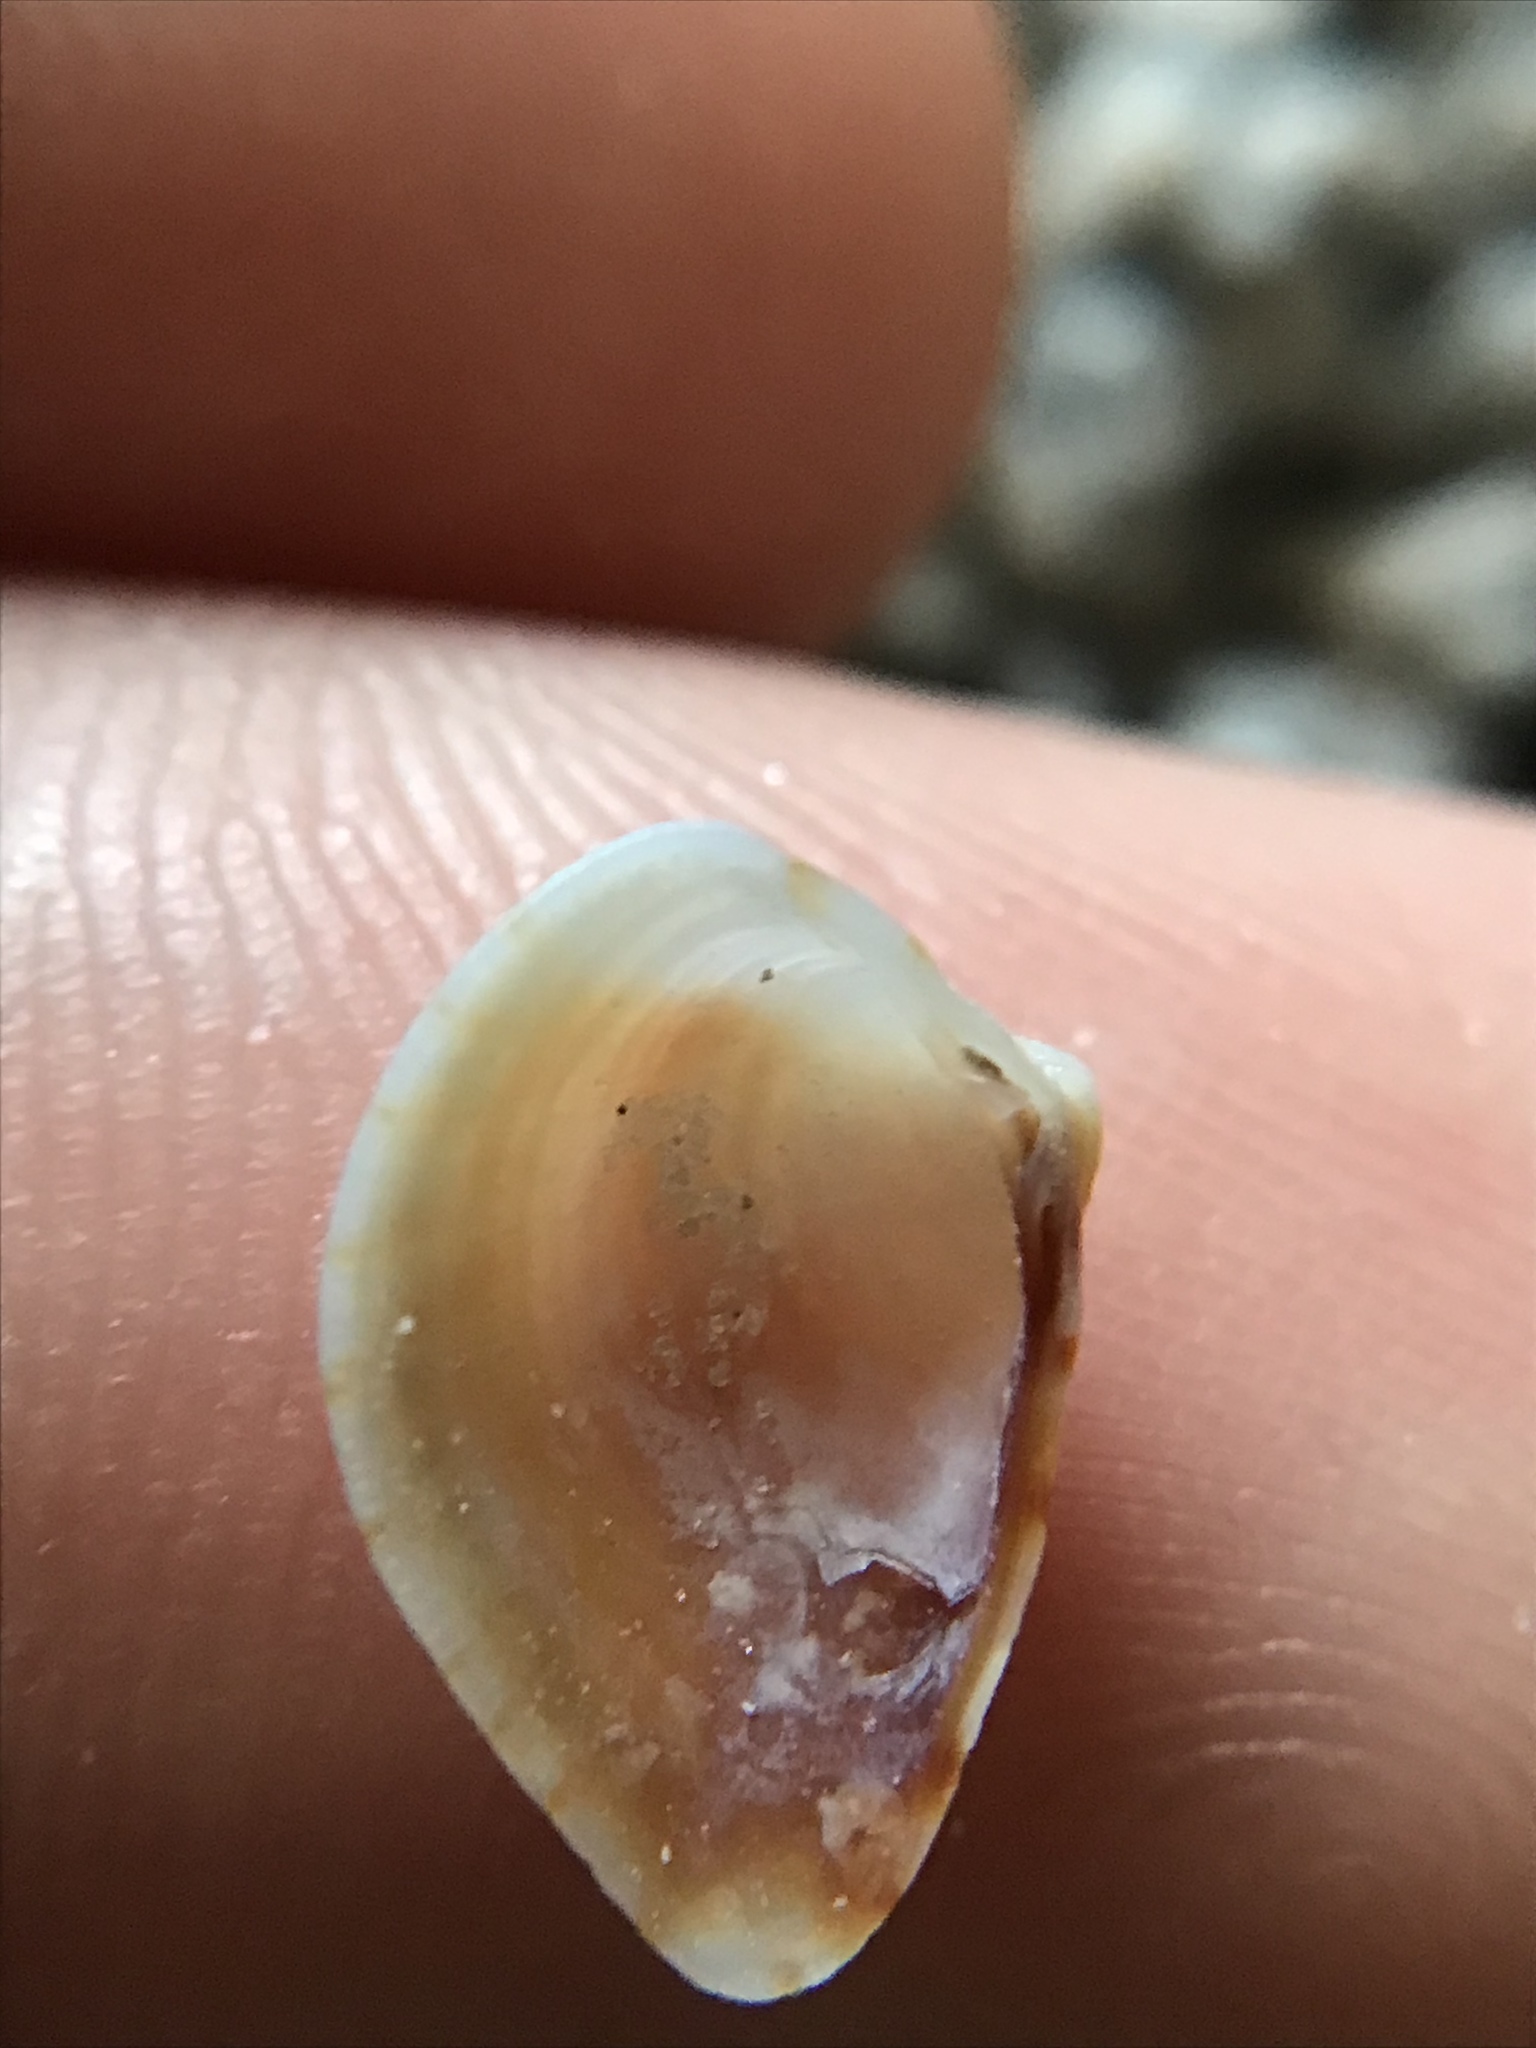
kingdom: Animalia
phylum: Mollusca
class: Bivalvia
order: Venerida
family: Veneridae
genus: Anomalocardia
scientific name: Anomalocardia cuneimeris
